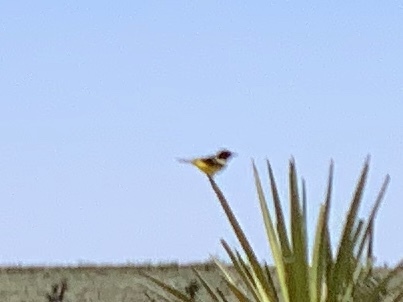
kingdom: Animalia
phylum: Chordata
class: Aves
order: Passeriformes
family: Icteridae
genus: Icterus
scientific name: Icterus parisorum
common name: Scott's oriole
